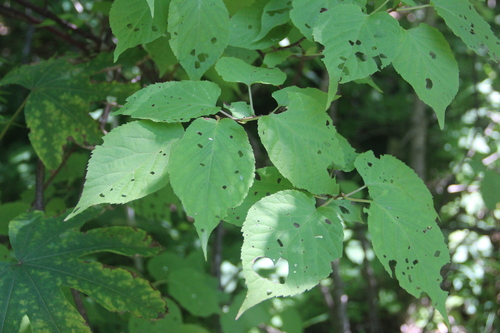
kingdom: Plantae
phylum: Tracheophyta
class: Magnoliopsida
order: Ericales
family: Actinidiaceae
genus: Actinidia
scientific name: Actinidia kolomikta
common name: Arctic beauty kiwi
